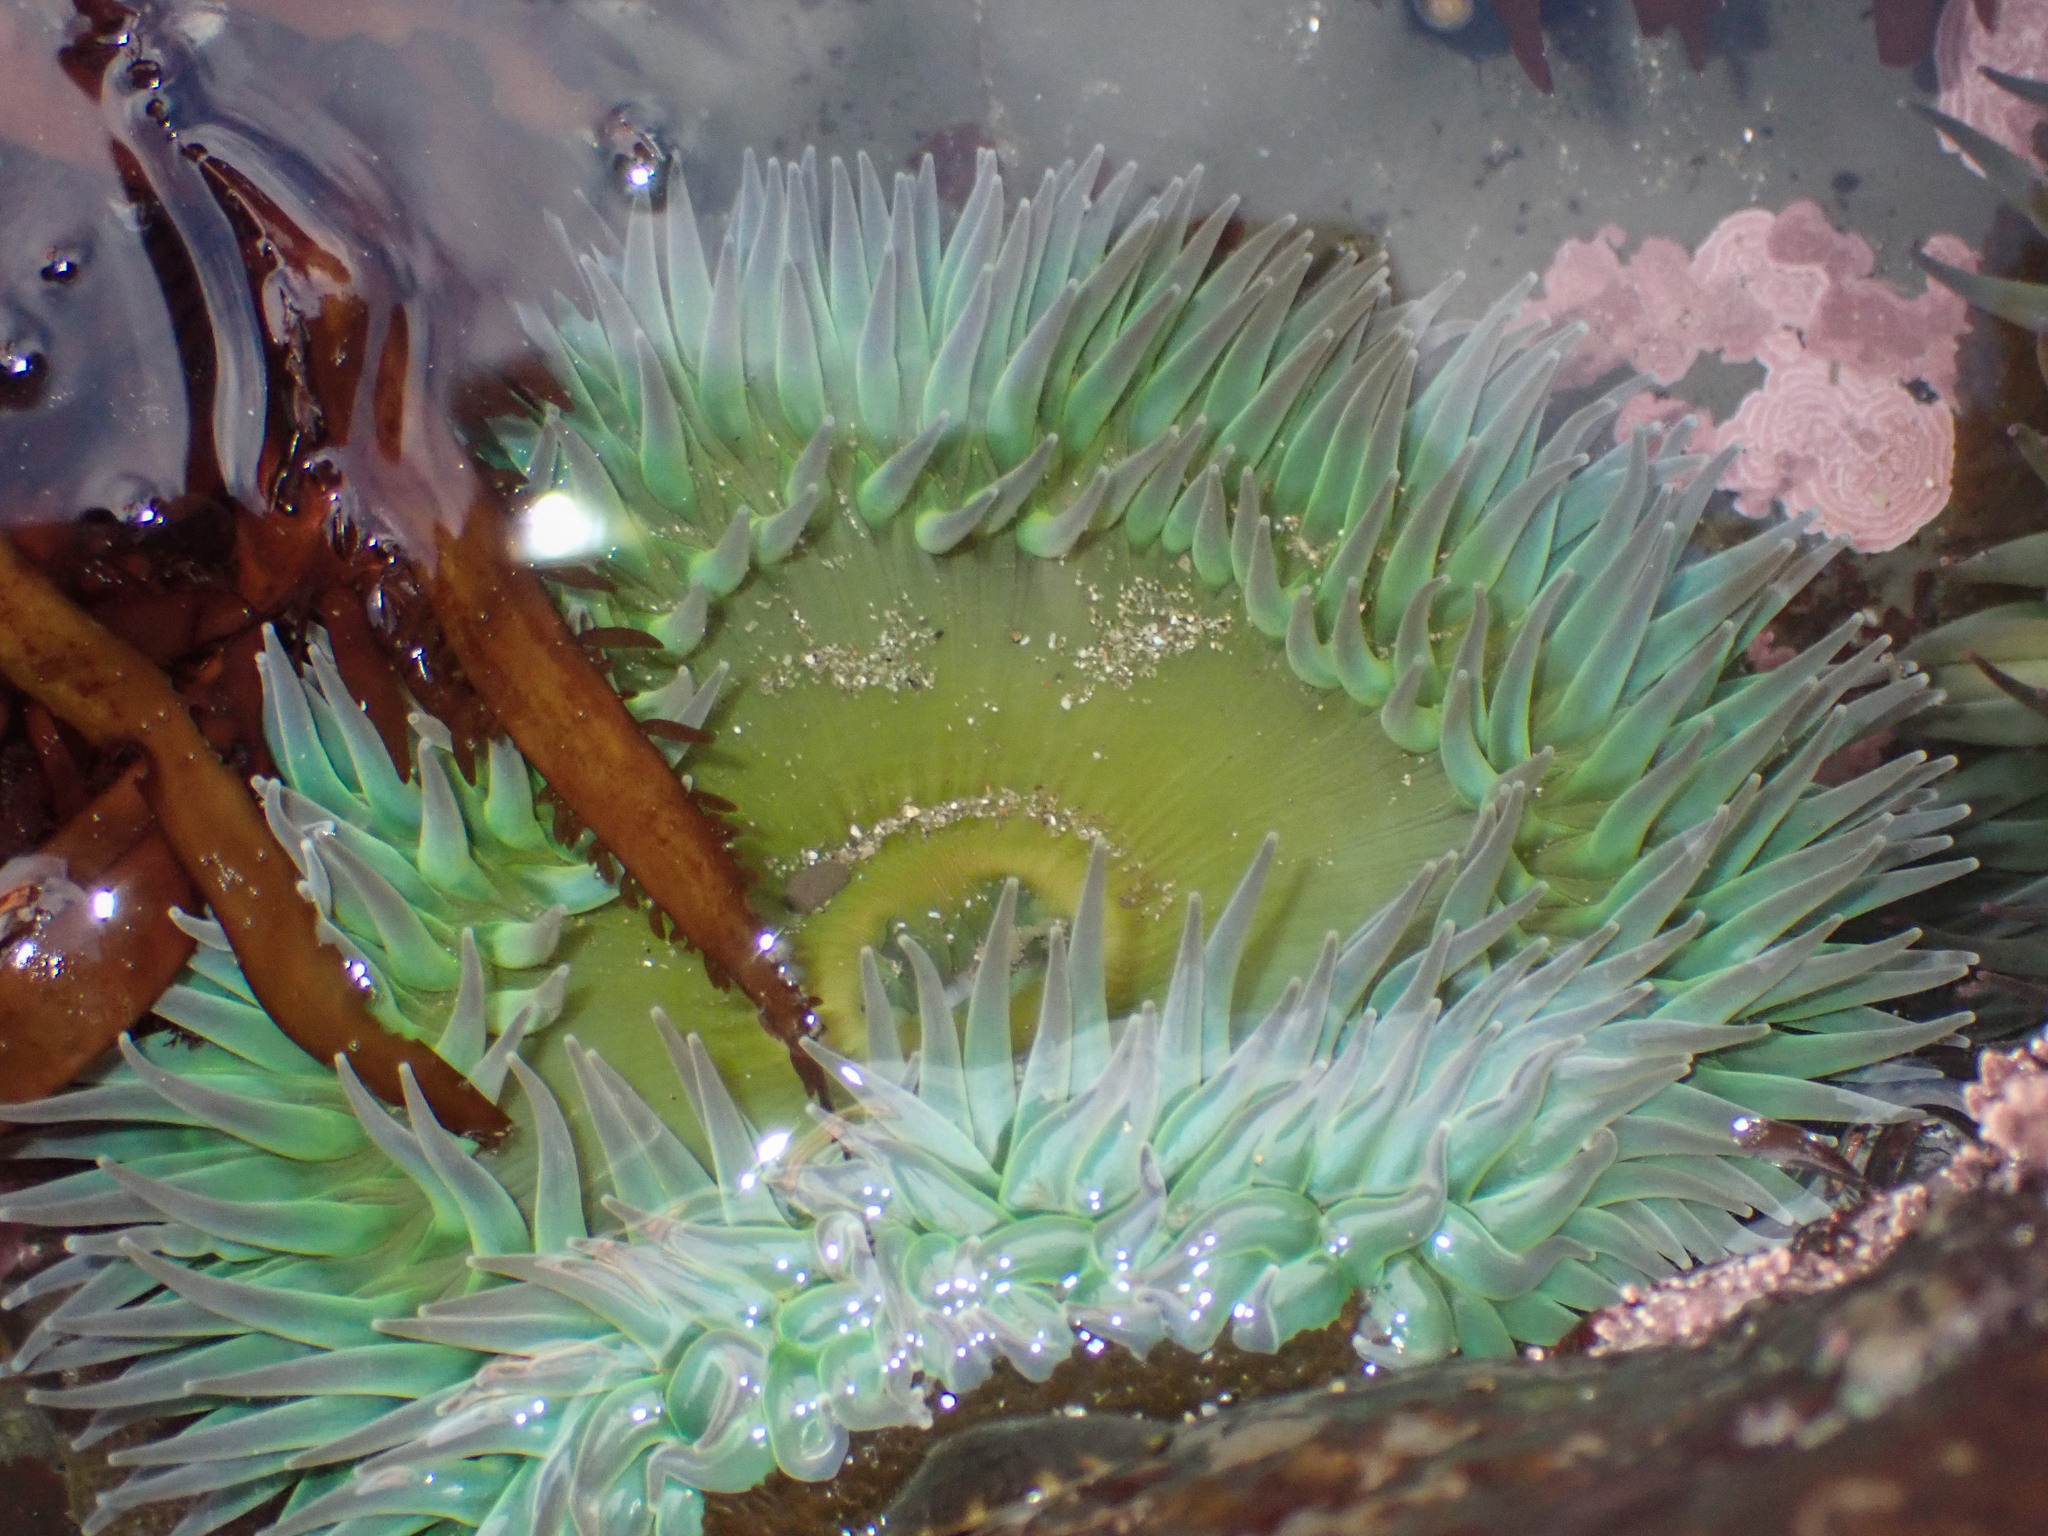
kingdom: Animalia
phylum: Cnidaria
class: Anthozoa
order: Actiniaria
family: Actiniidae
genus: Anthopleura
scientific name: Anthopleura xanthogrammica
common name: Giant green anemone
